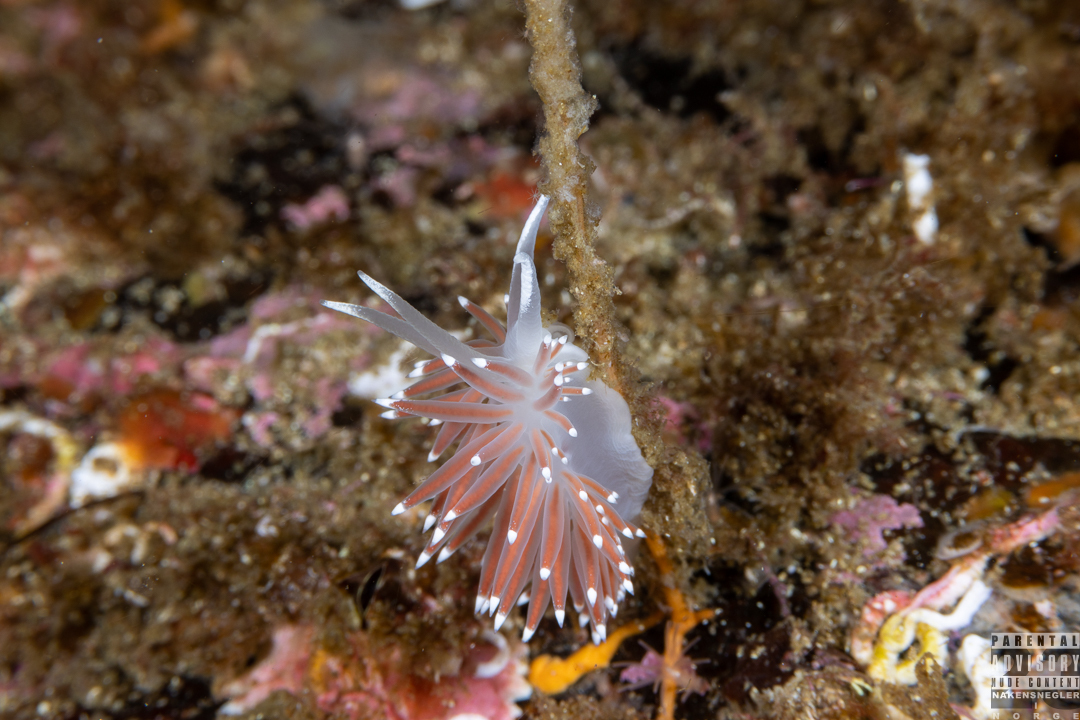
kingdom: Animalia
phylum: Mollusca
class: Gastropoda
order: Nudibranchia
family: Coryphellidae
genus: Coryphella
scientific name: Coryphella browni
